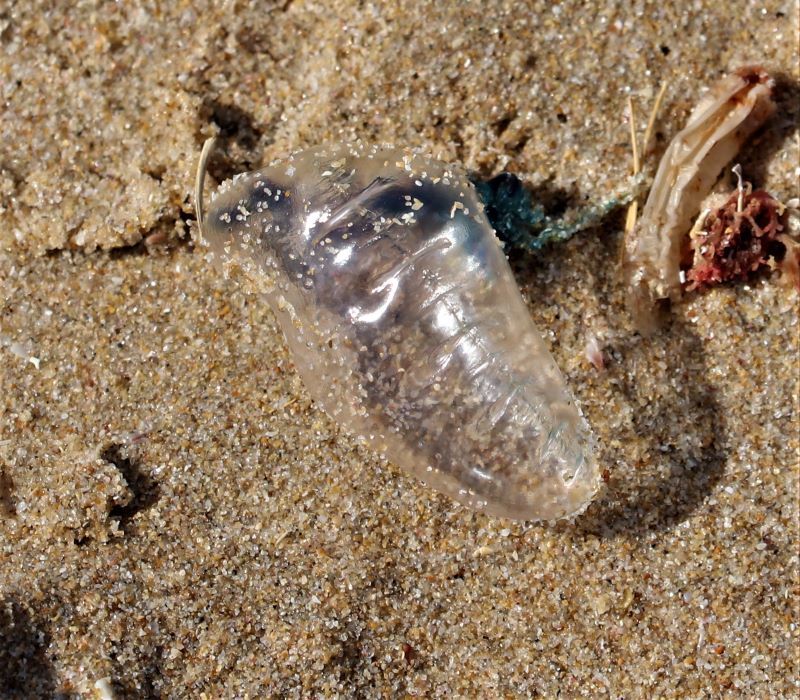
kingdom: Animalia
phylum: Cnidaria
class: Hydrozoa
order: Siphonophorae
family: Physaliidae
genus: Physalia
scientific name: Physalia physalis
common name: Portuguese man-of-war
